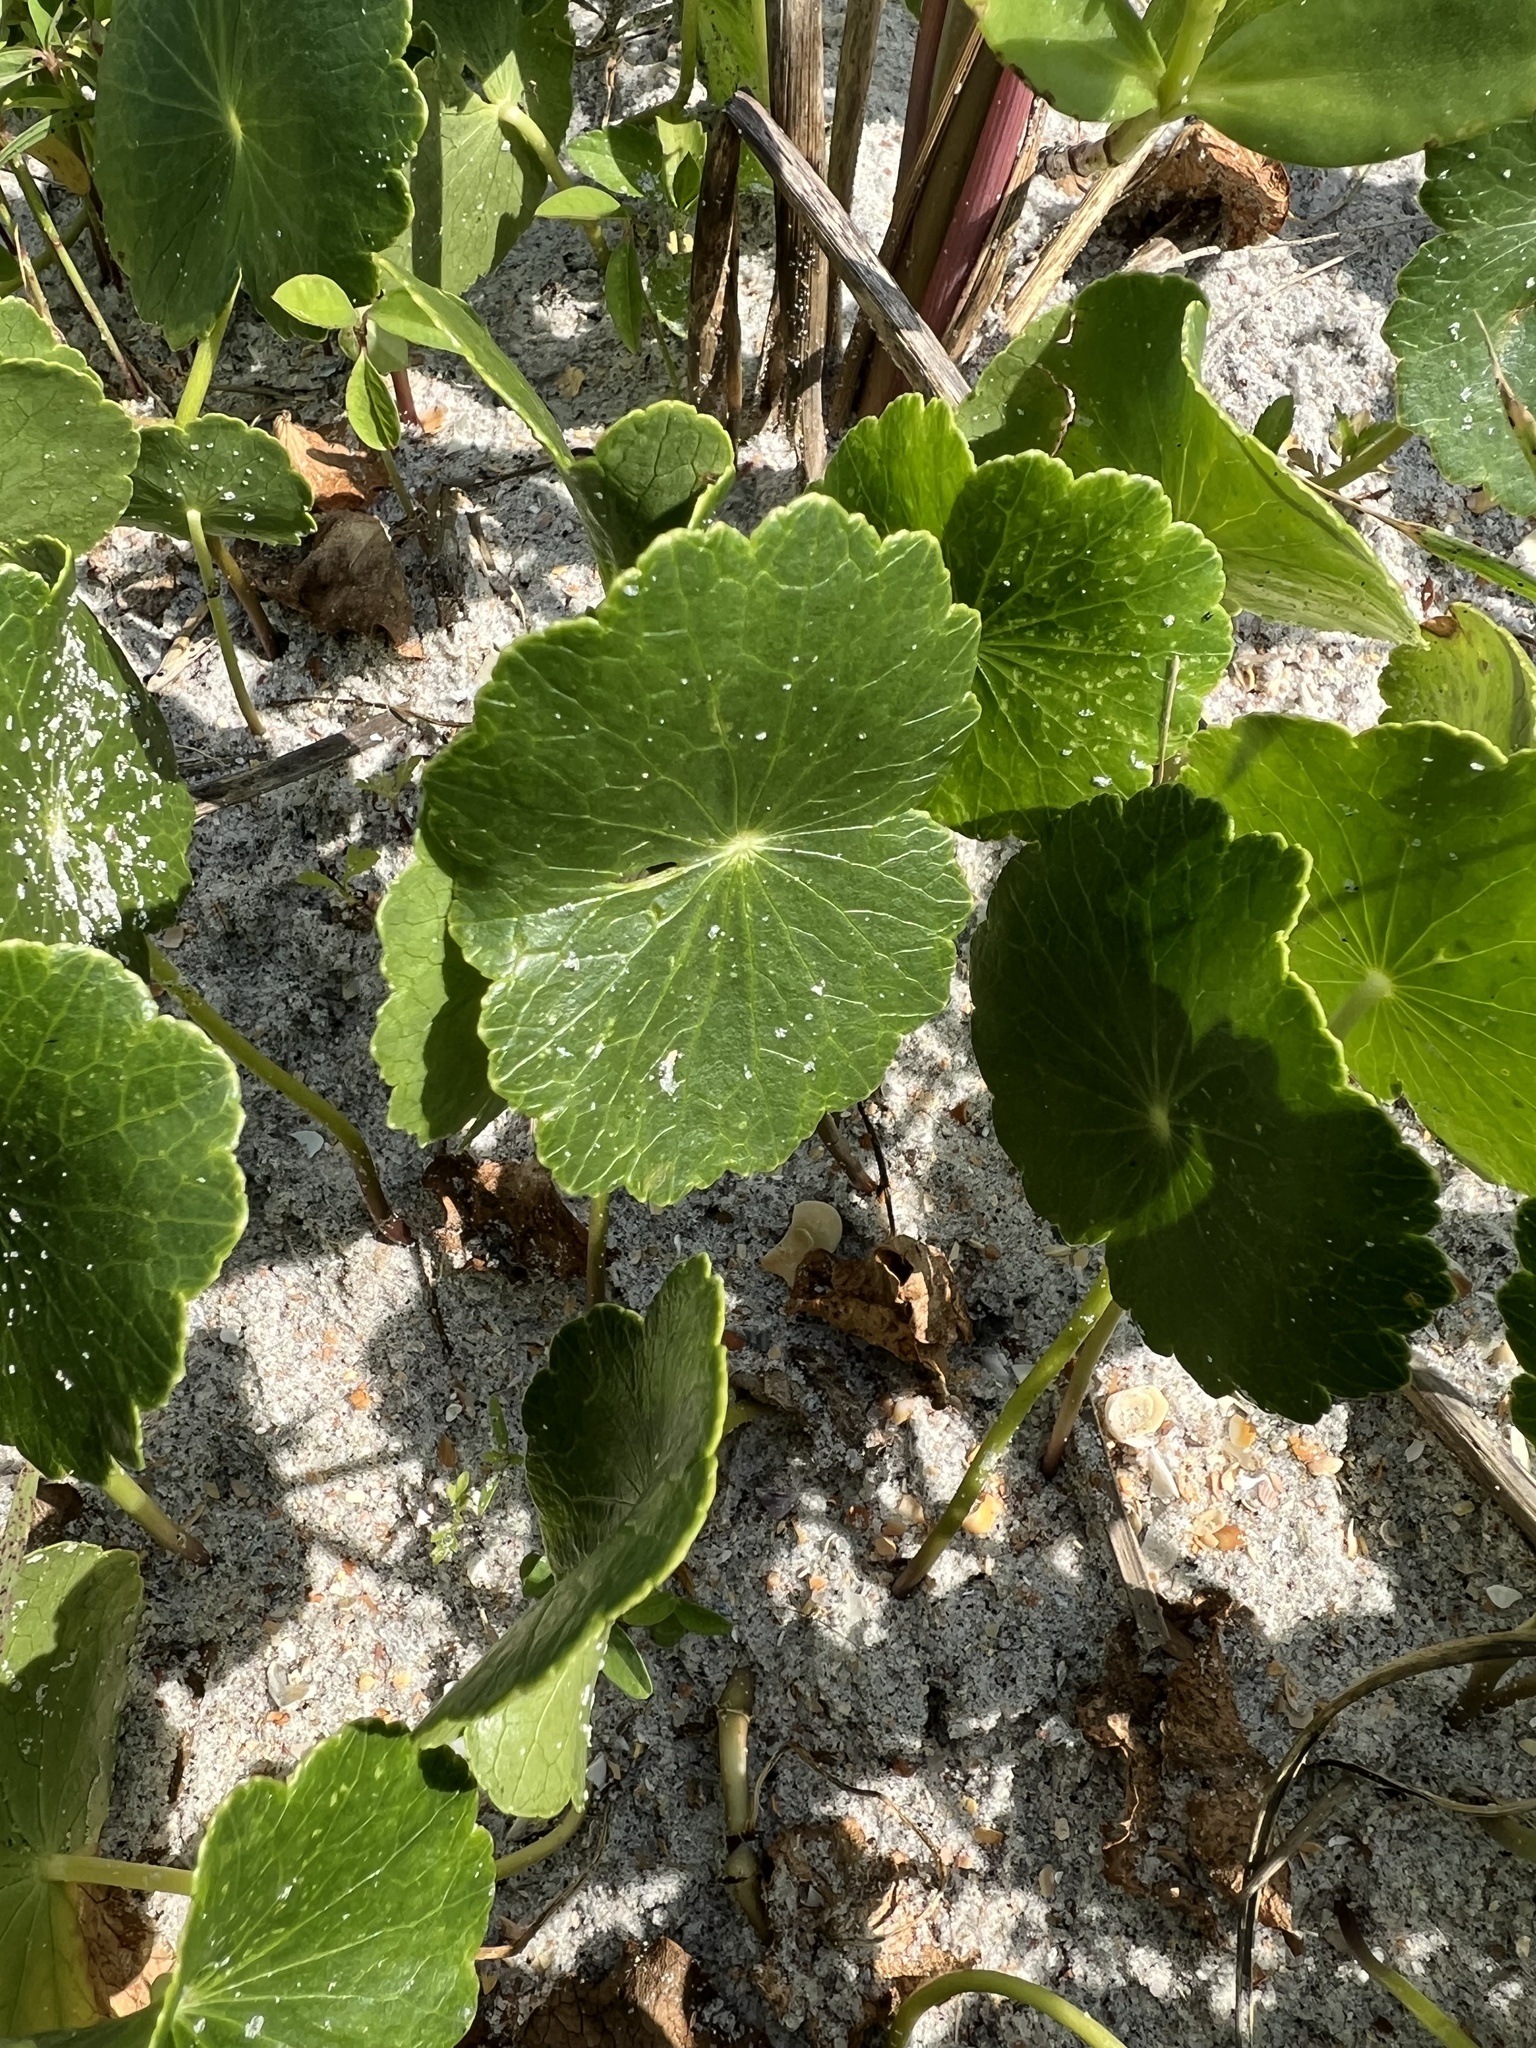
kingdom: Plantae
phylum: Tracheophyta
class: Magnoliopsida
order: Apiales
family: Araliaceae
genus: Hydrocotyle
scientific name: Hydrocotyle bonariensis
